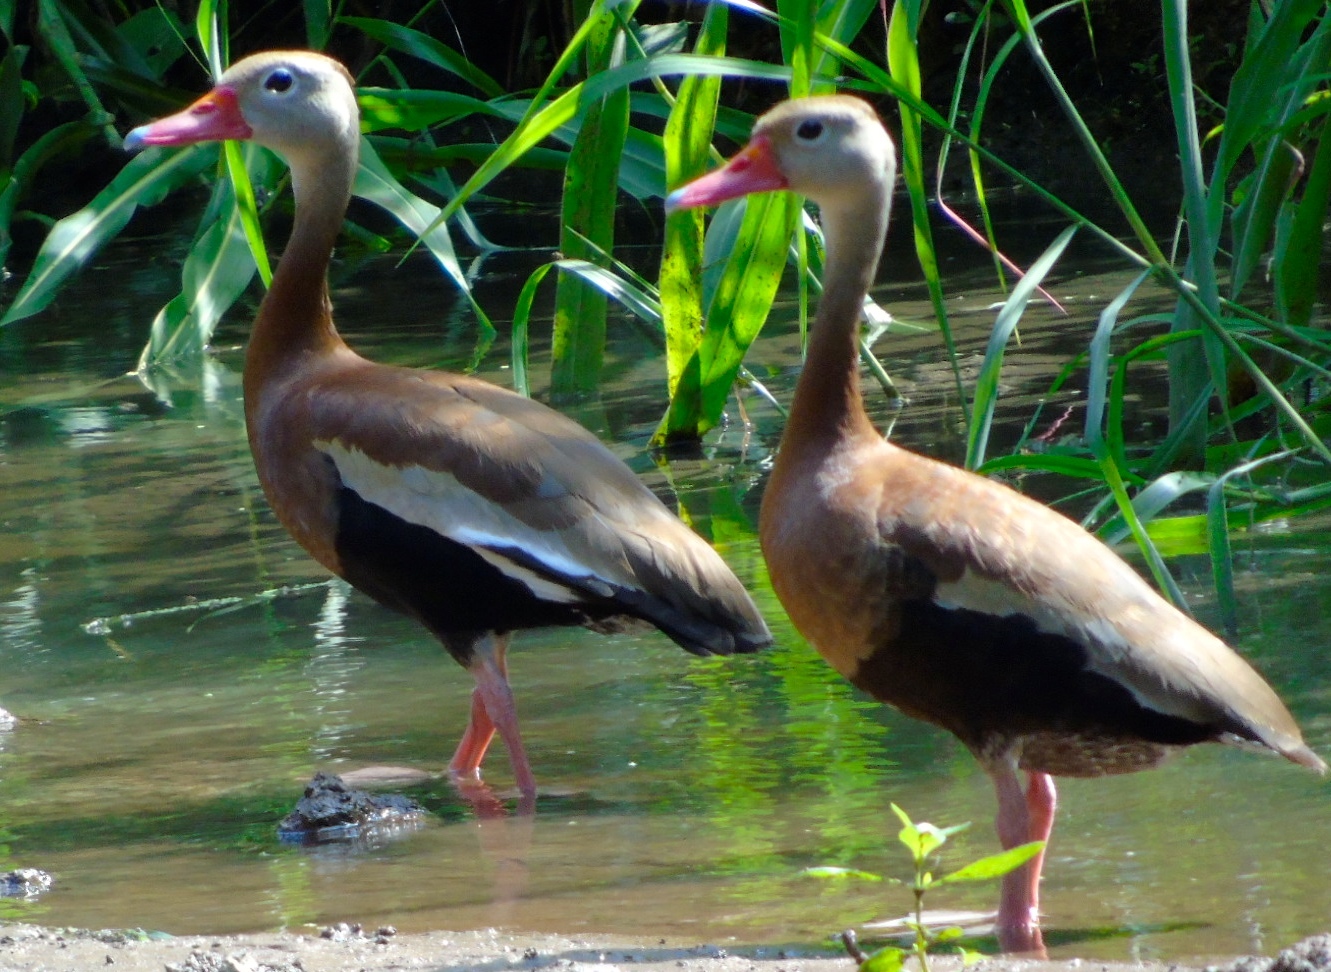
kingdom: Animalia
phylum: Chordata
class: Aves
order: Anseriformes
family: Anatidae
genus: Dendrocygna
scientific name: Dendrocygna autumnalis
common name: Black-bellied whistling duck
